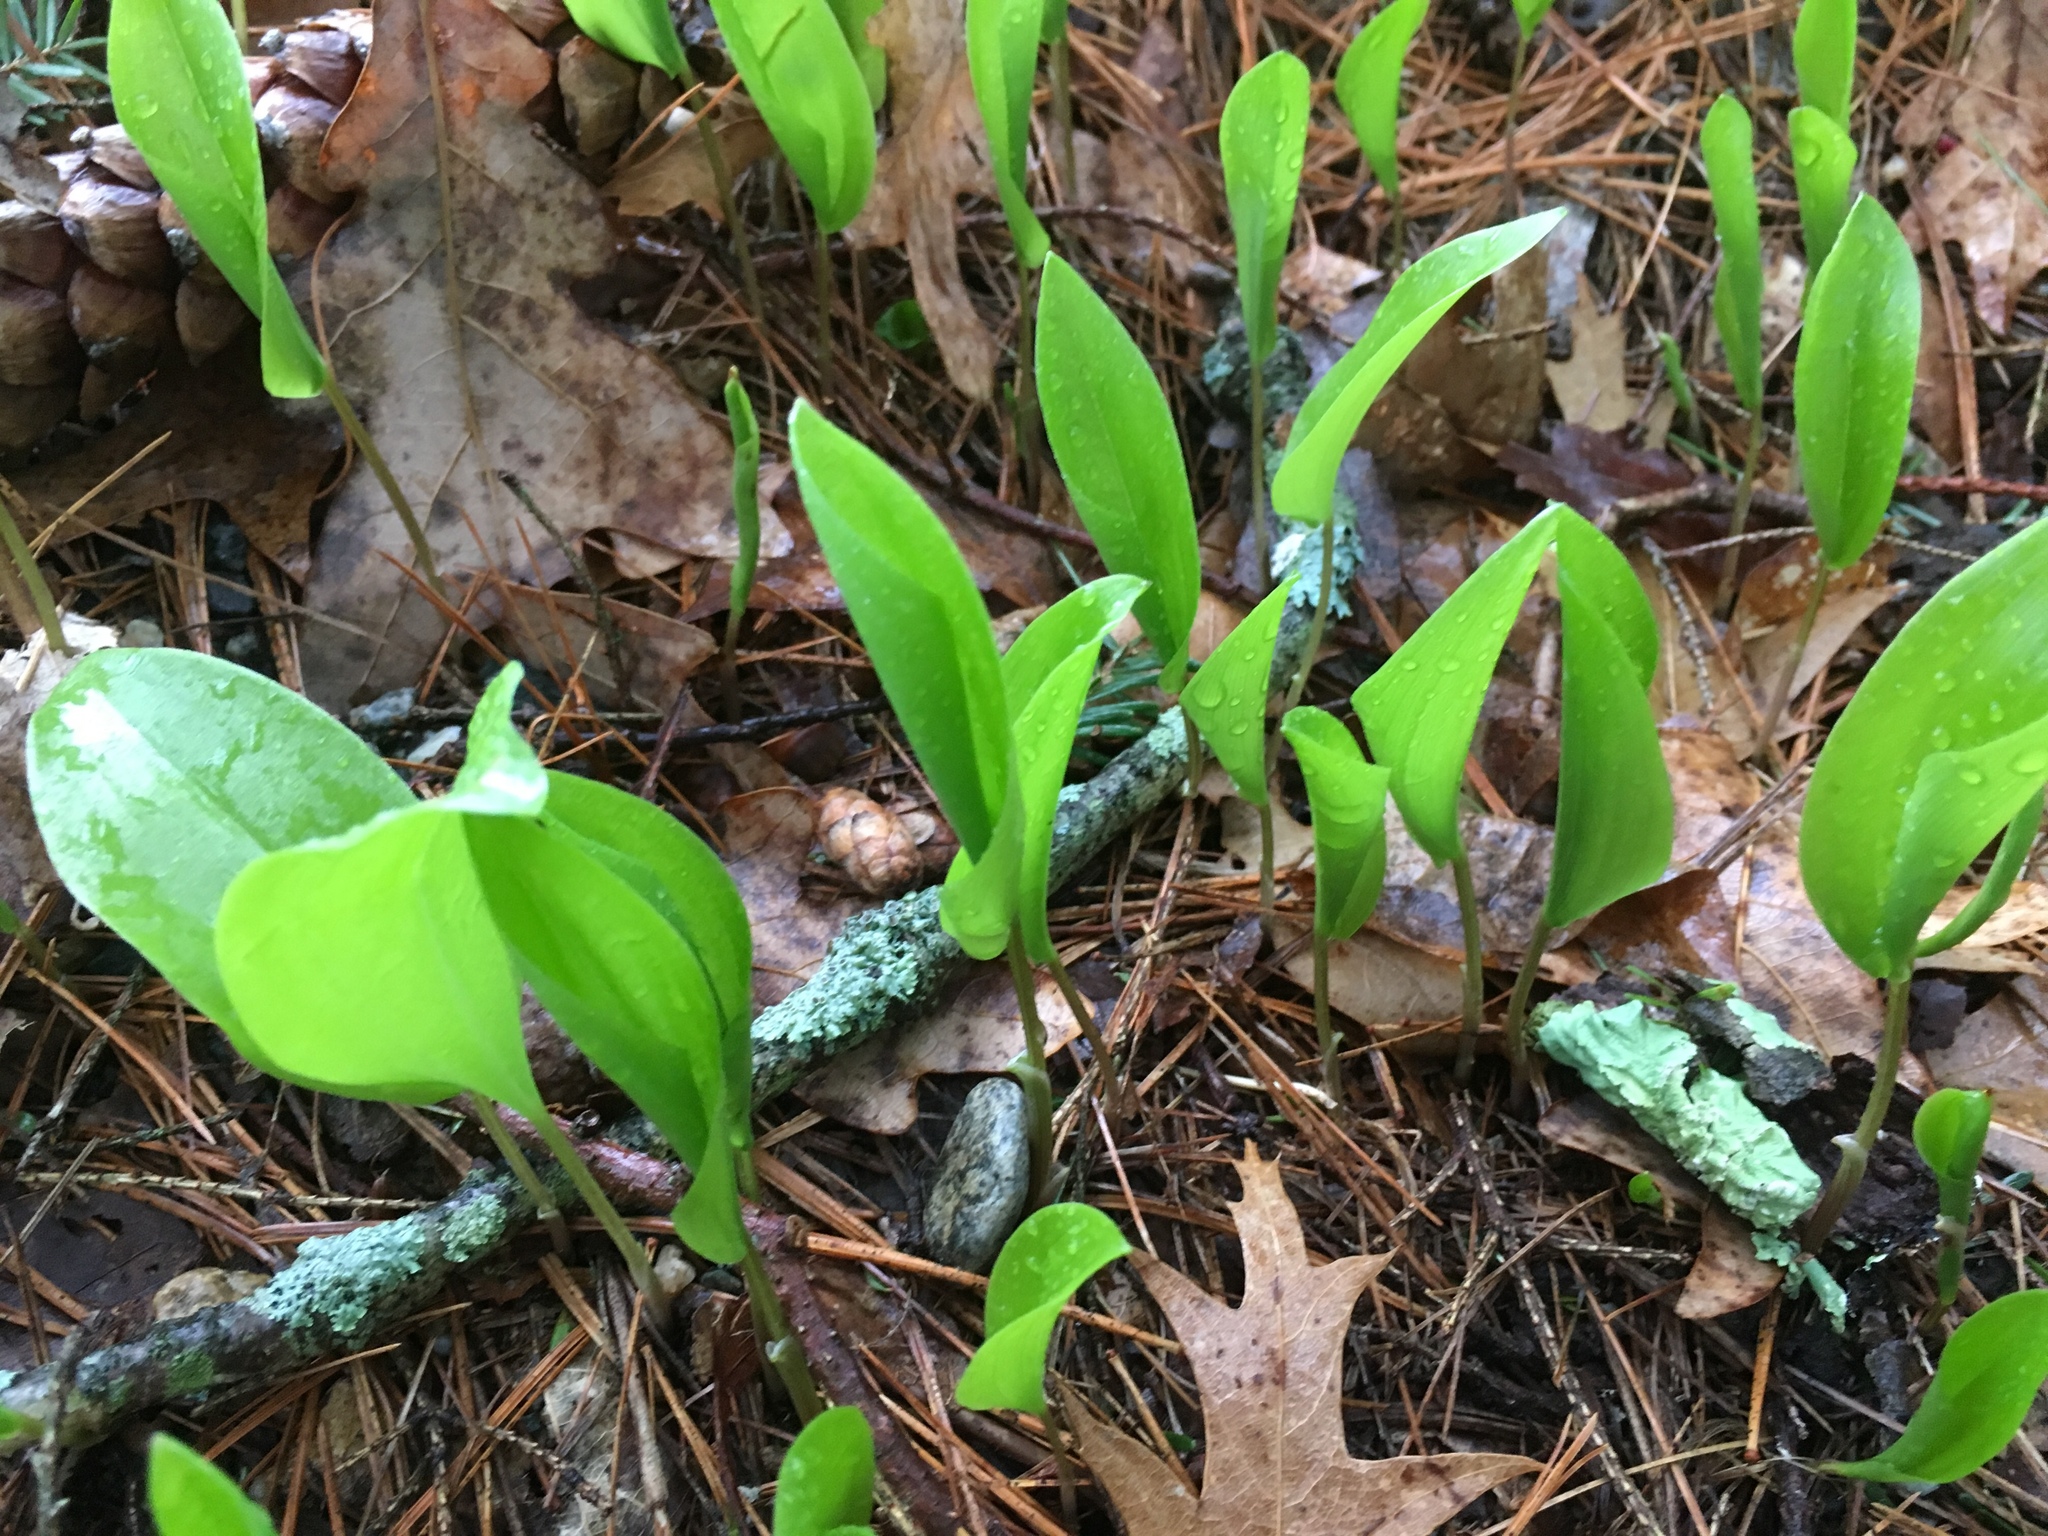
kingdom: Plantae
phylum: Tracheophyta
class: Liliopsida
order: Asparagales
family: Asparagaceae
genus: Maianthemum
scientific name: Maianthemum canadense
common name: False lily-of-the-valley
